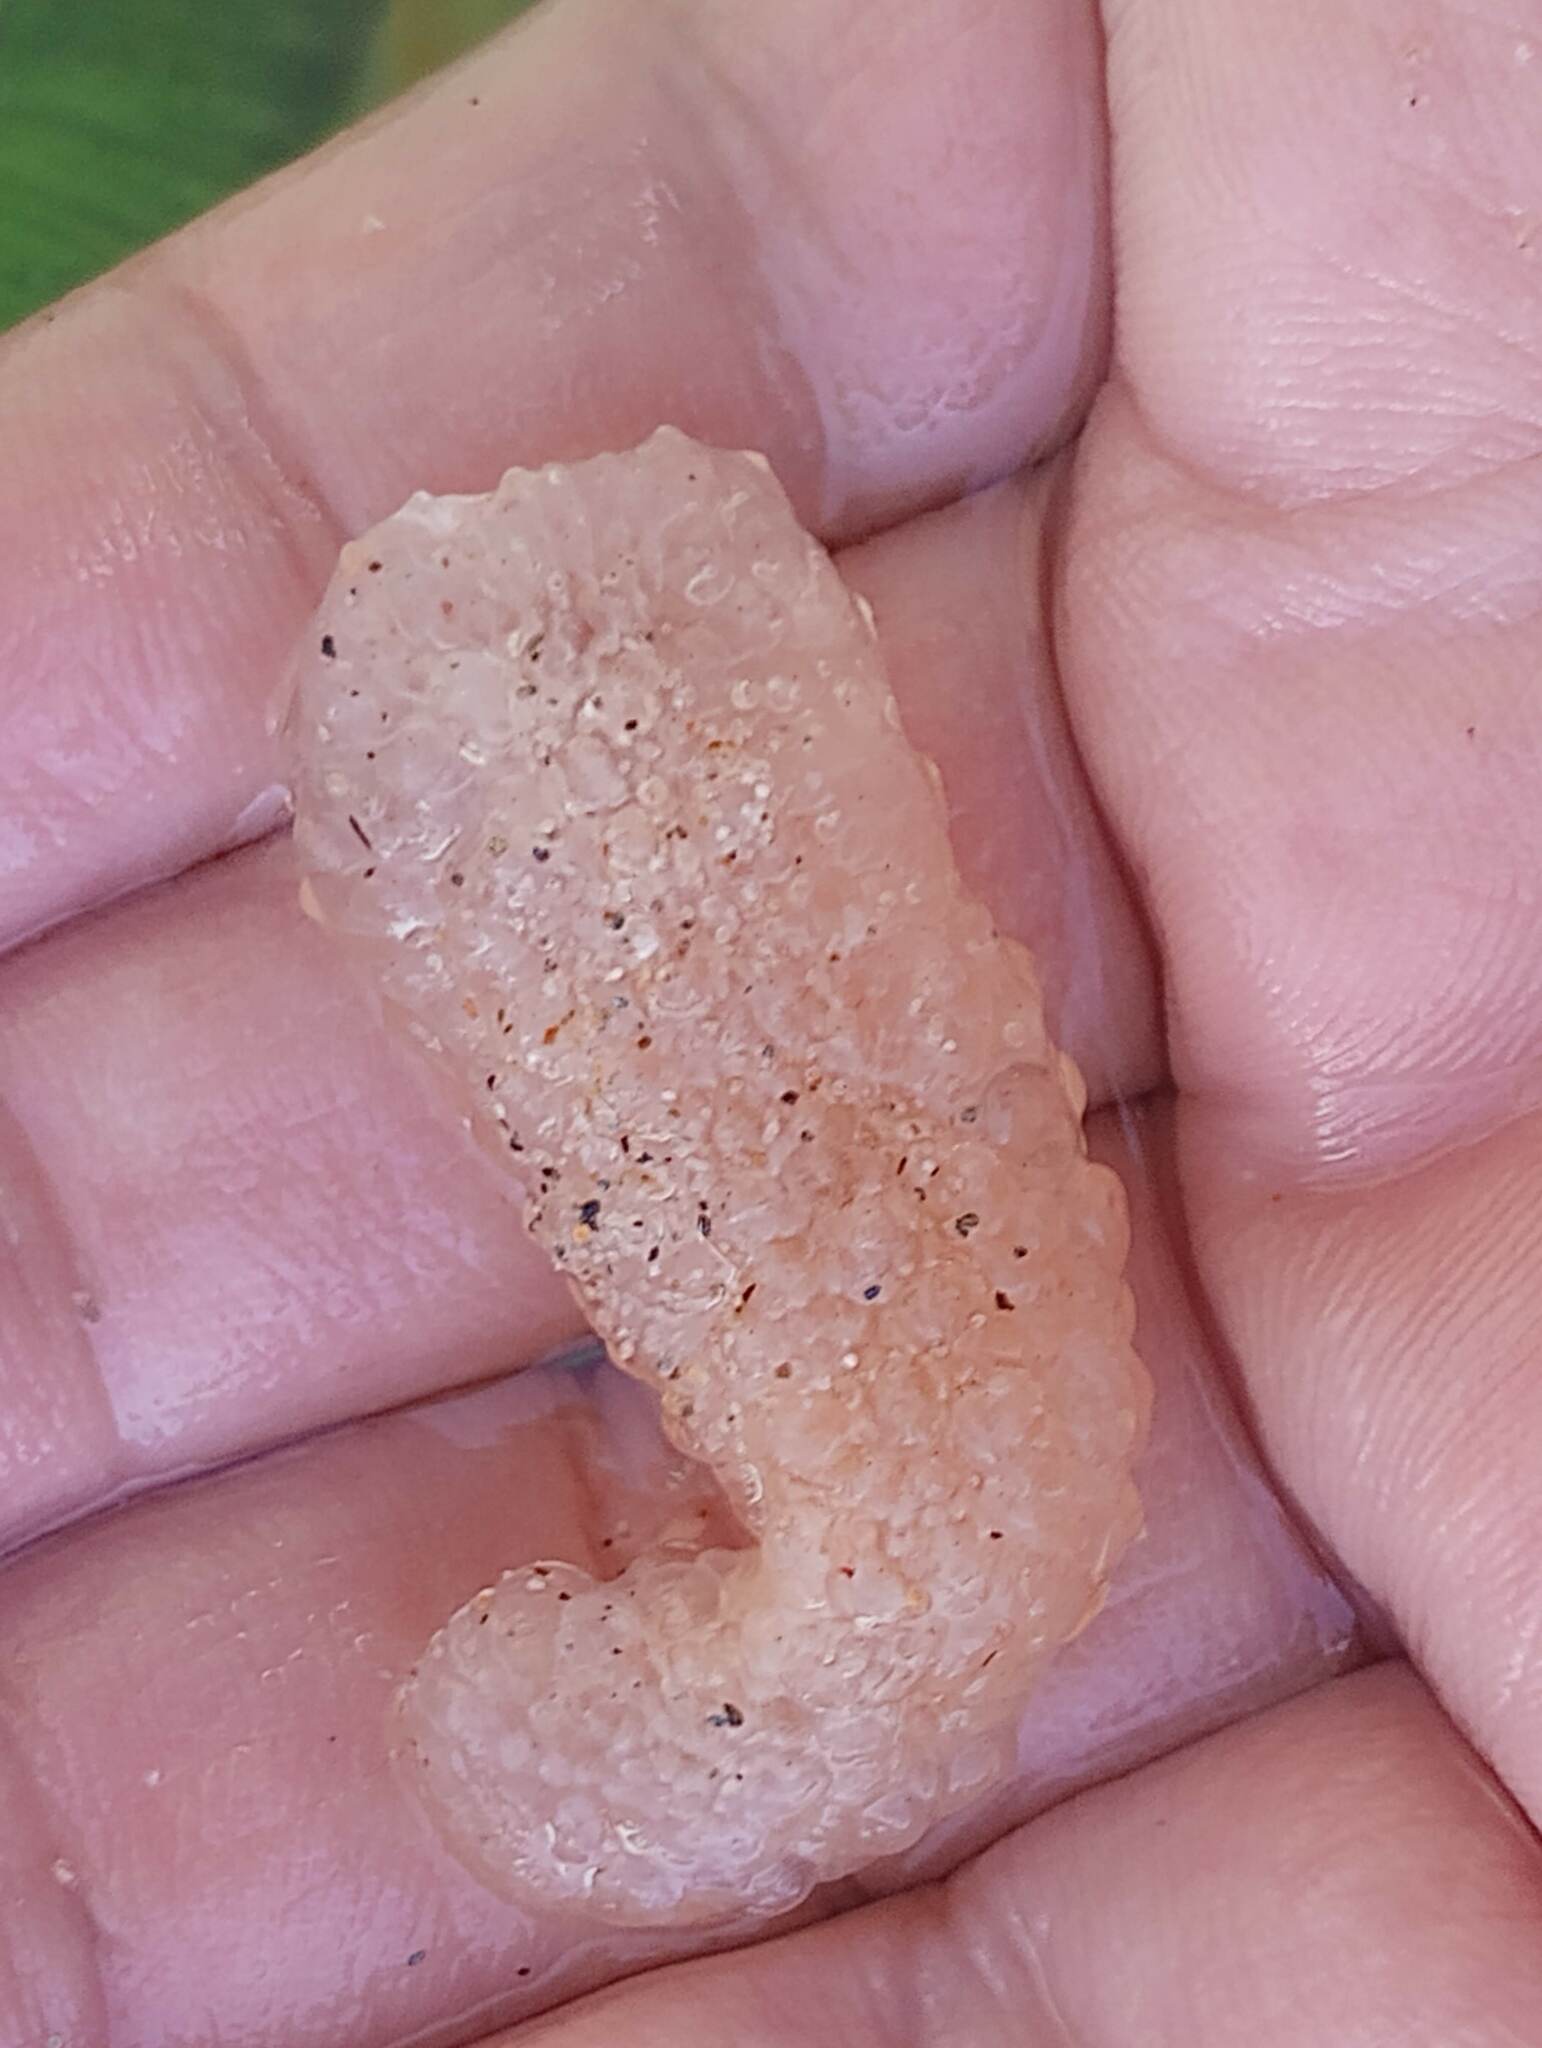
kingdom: Animalia
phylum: Chordata
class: Thaliacea
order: Pyrosomatida
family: Pyrosomatidae
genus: Pyrosoma
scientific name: Pyrosoma atlanticum
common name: Atlantic pyrosomes
